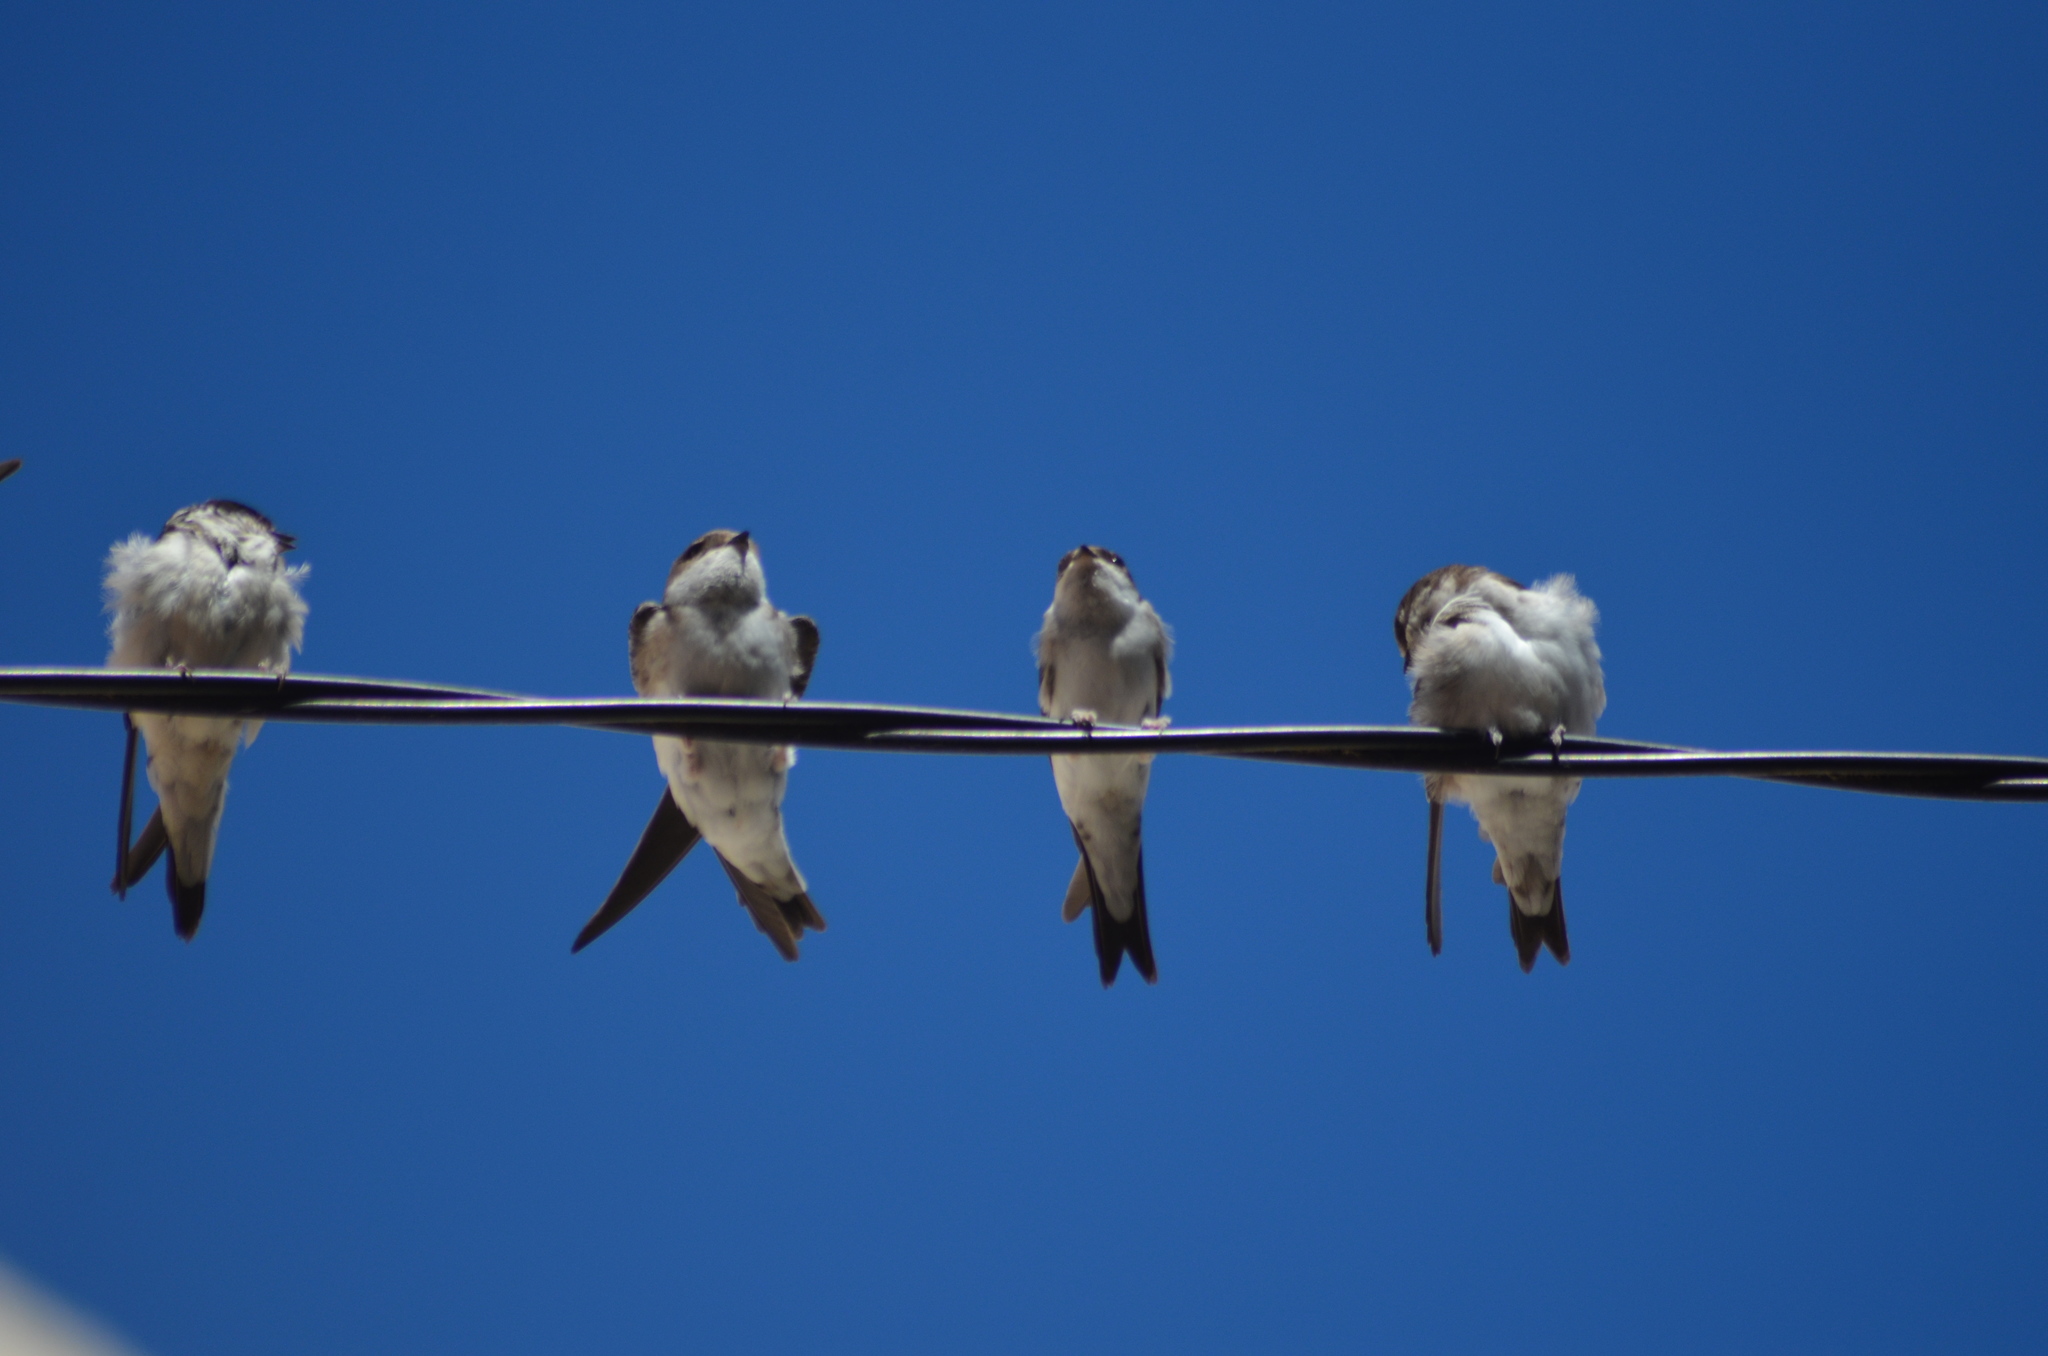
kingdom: Animalia
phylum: Chordata
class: Aves
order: Passeriformes
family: Hirundinidae
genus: Delichon
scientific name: Delichon urbicum
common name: Common house martin
